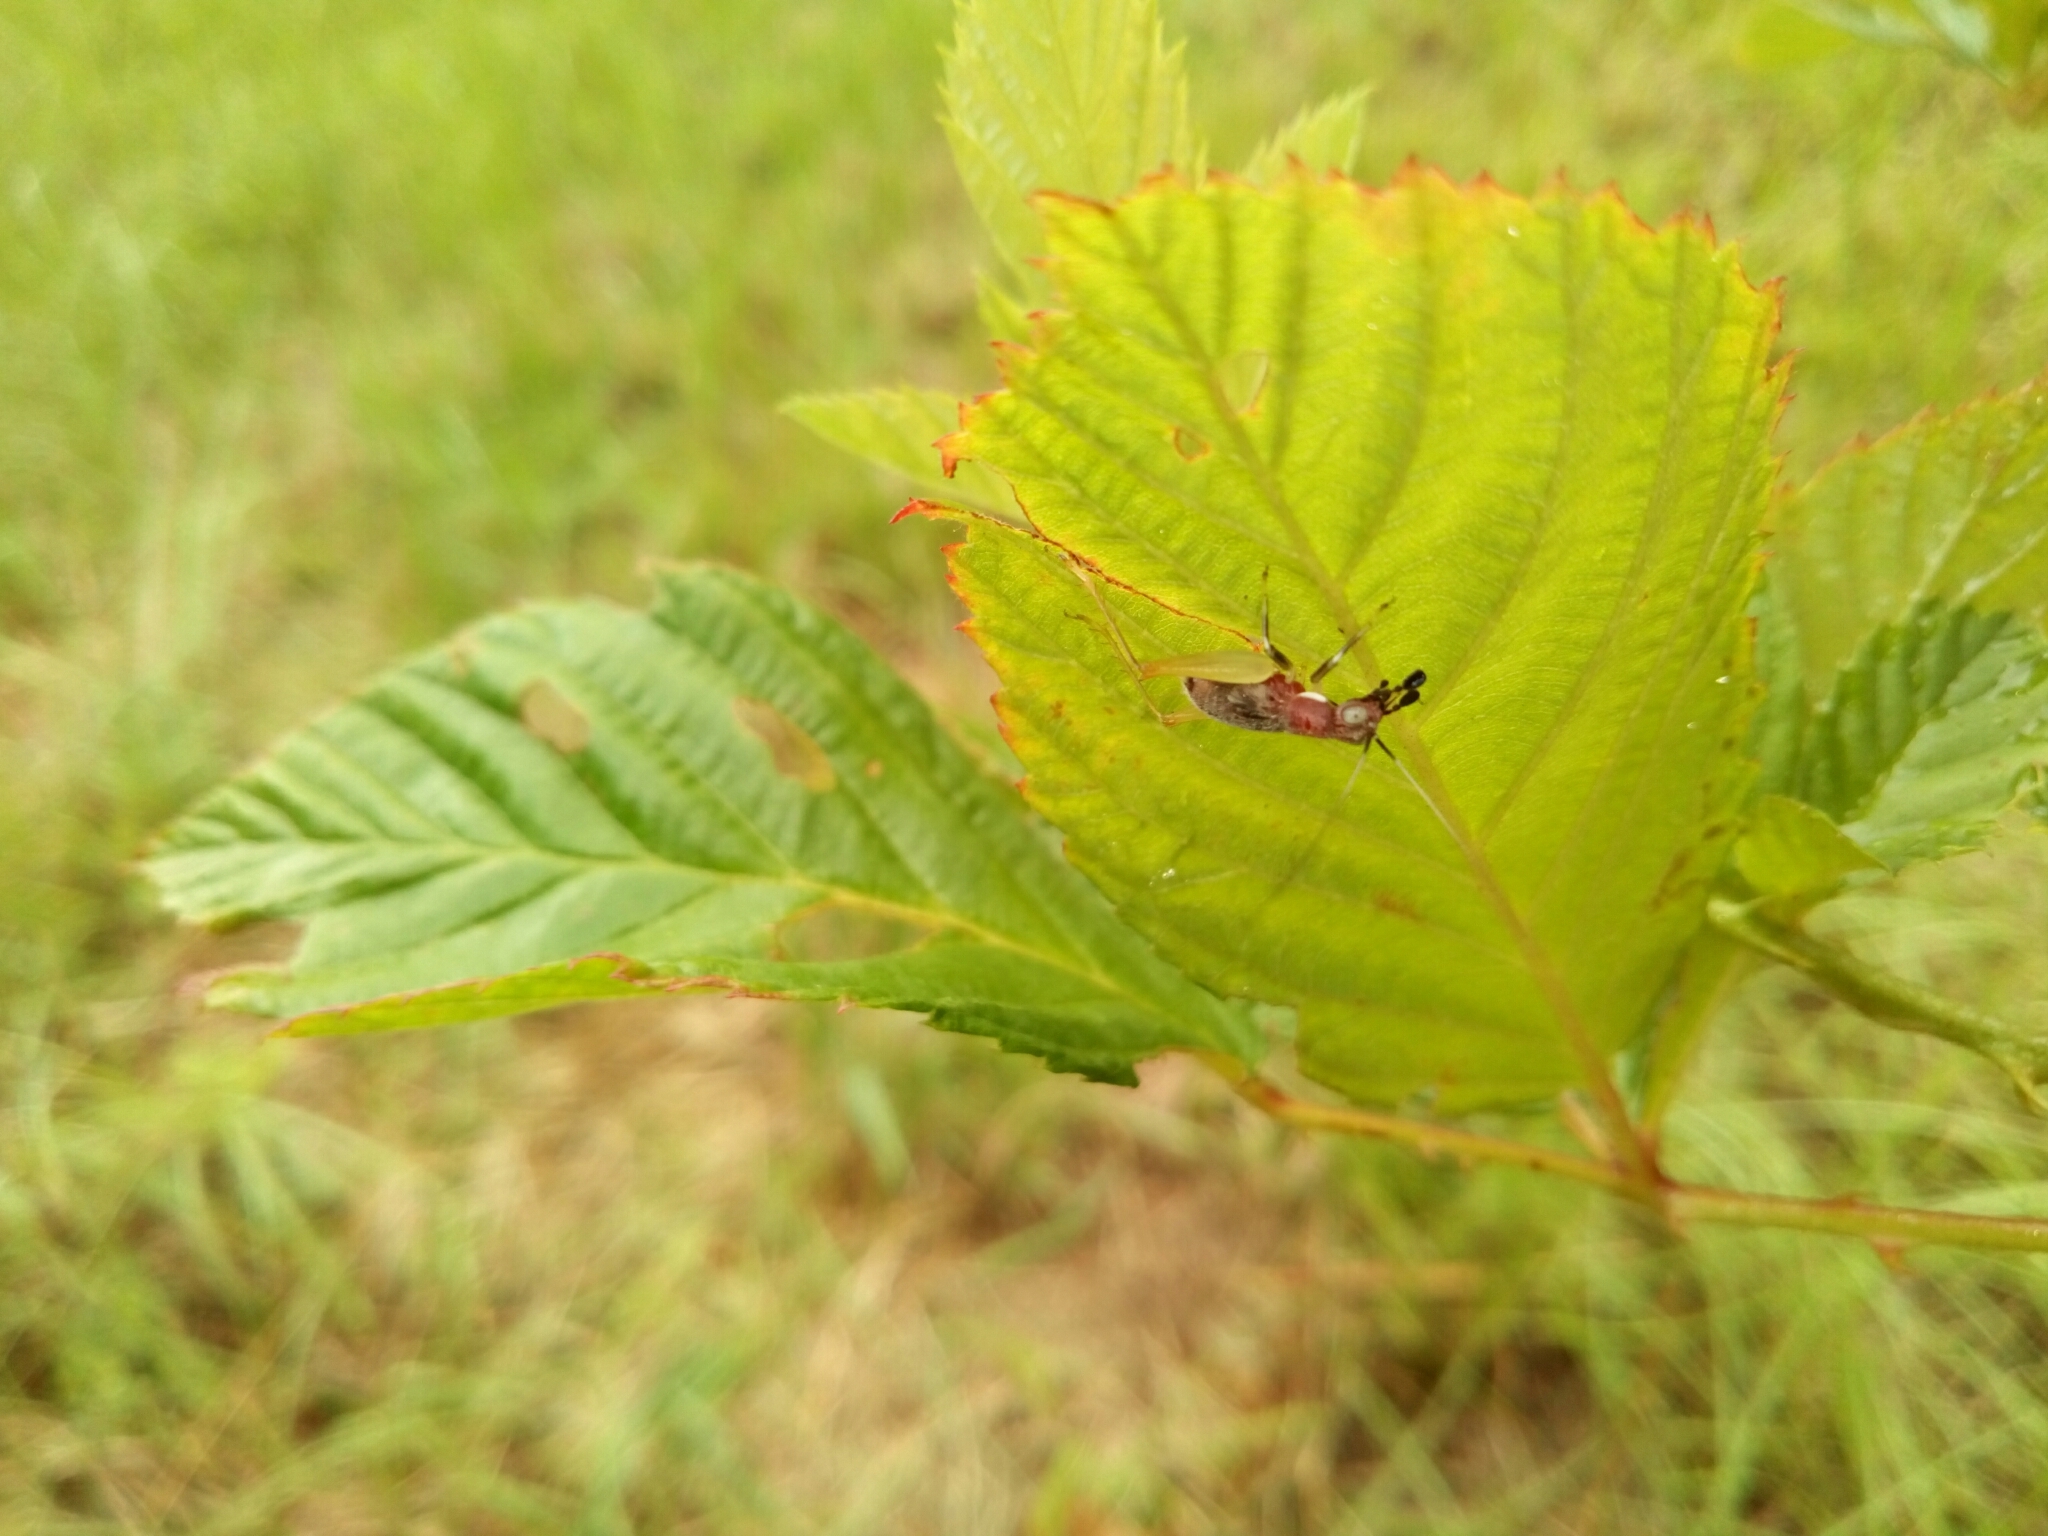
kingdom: Animalia
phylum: Arthropoda
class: Insecta
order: Orthoptera
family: Trigonidiidae
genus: Phyllopalpus
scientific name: Phyllopalpus pulchellus
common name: Handsome trig
